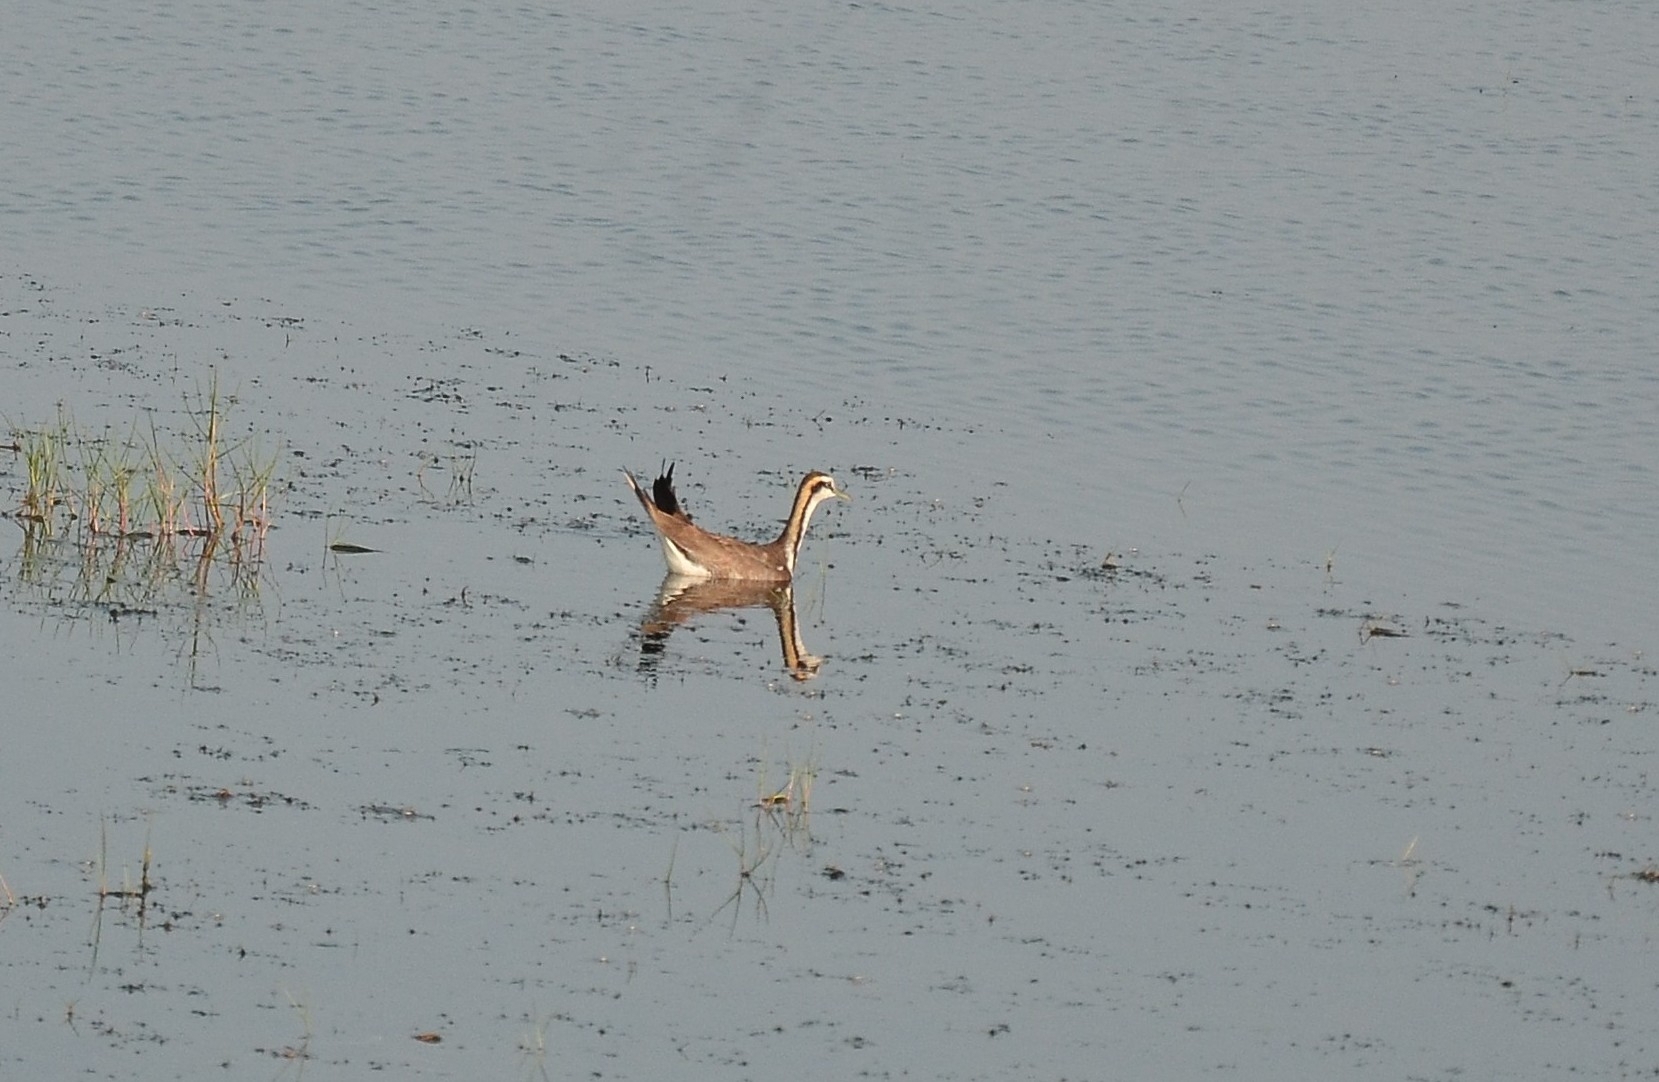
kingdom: Animalia
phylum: Chordata
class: Aves
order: Charadriiformes
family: Jacanidae
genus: Hydrophasianus
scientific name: Hydrophasianus chirurgus
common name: Pheasant-tailed jacana
